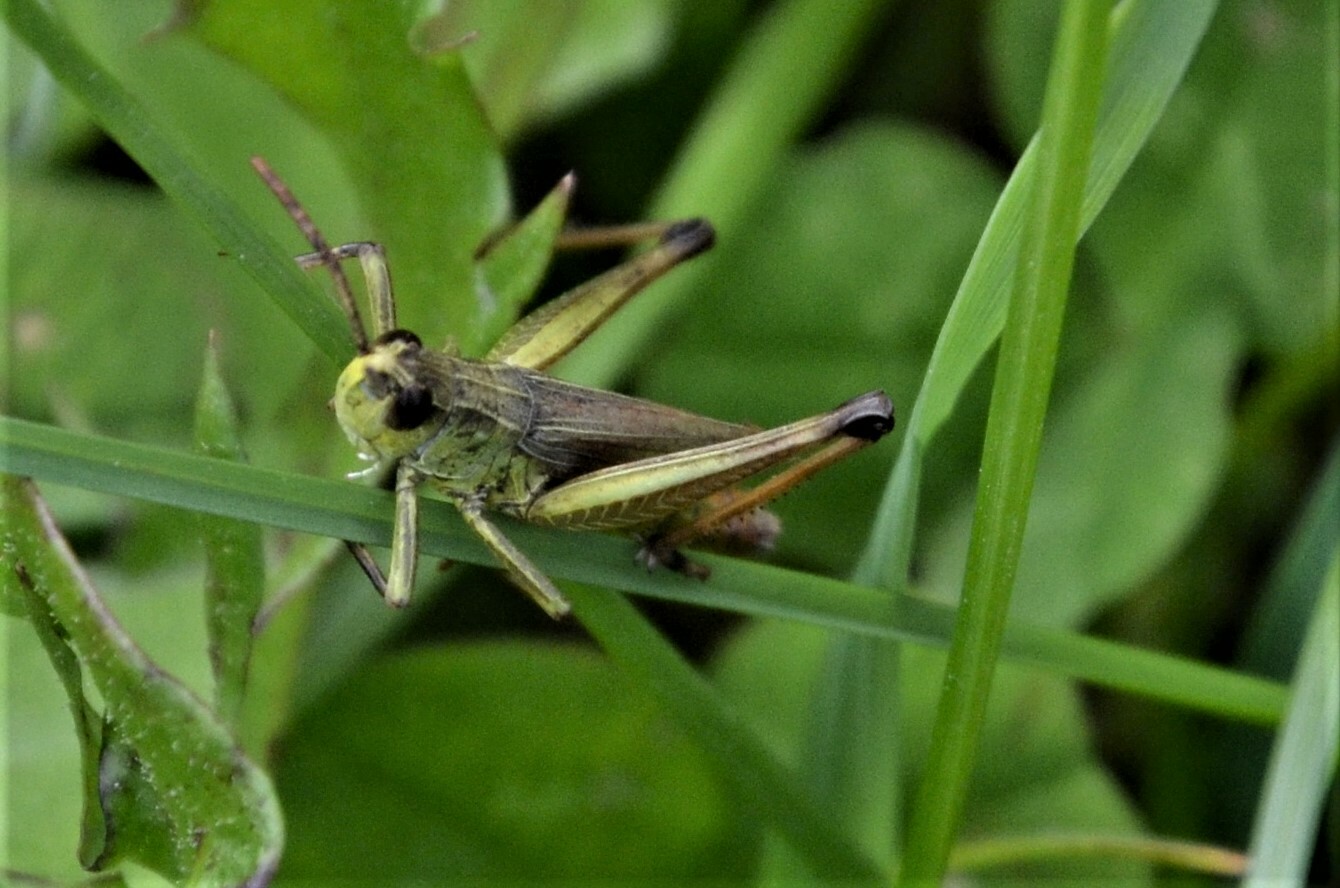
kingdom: Animalia
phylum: Arthropoda
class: Insecta
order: Orthoptera
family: Acrididae
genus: Pseudochorthippus
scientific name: Pseudochorthippus parallelus
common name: Meadow grasshopper
